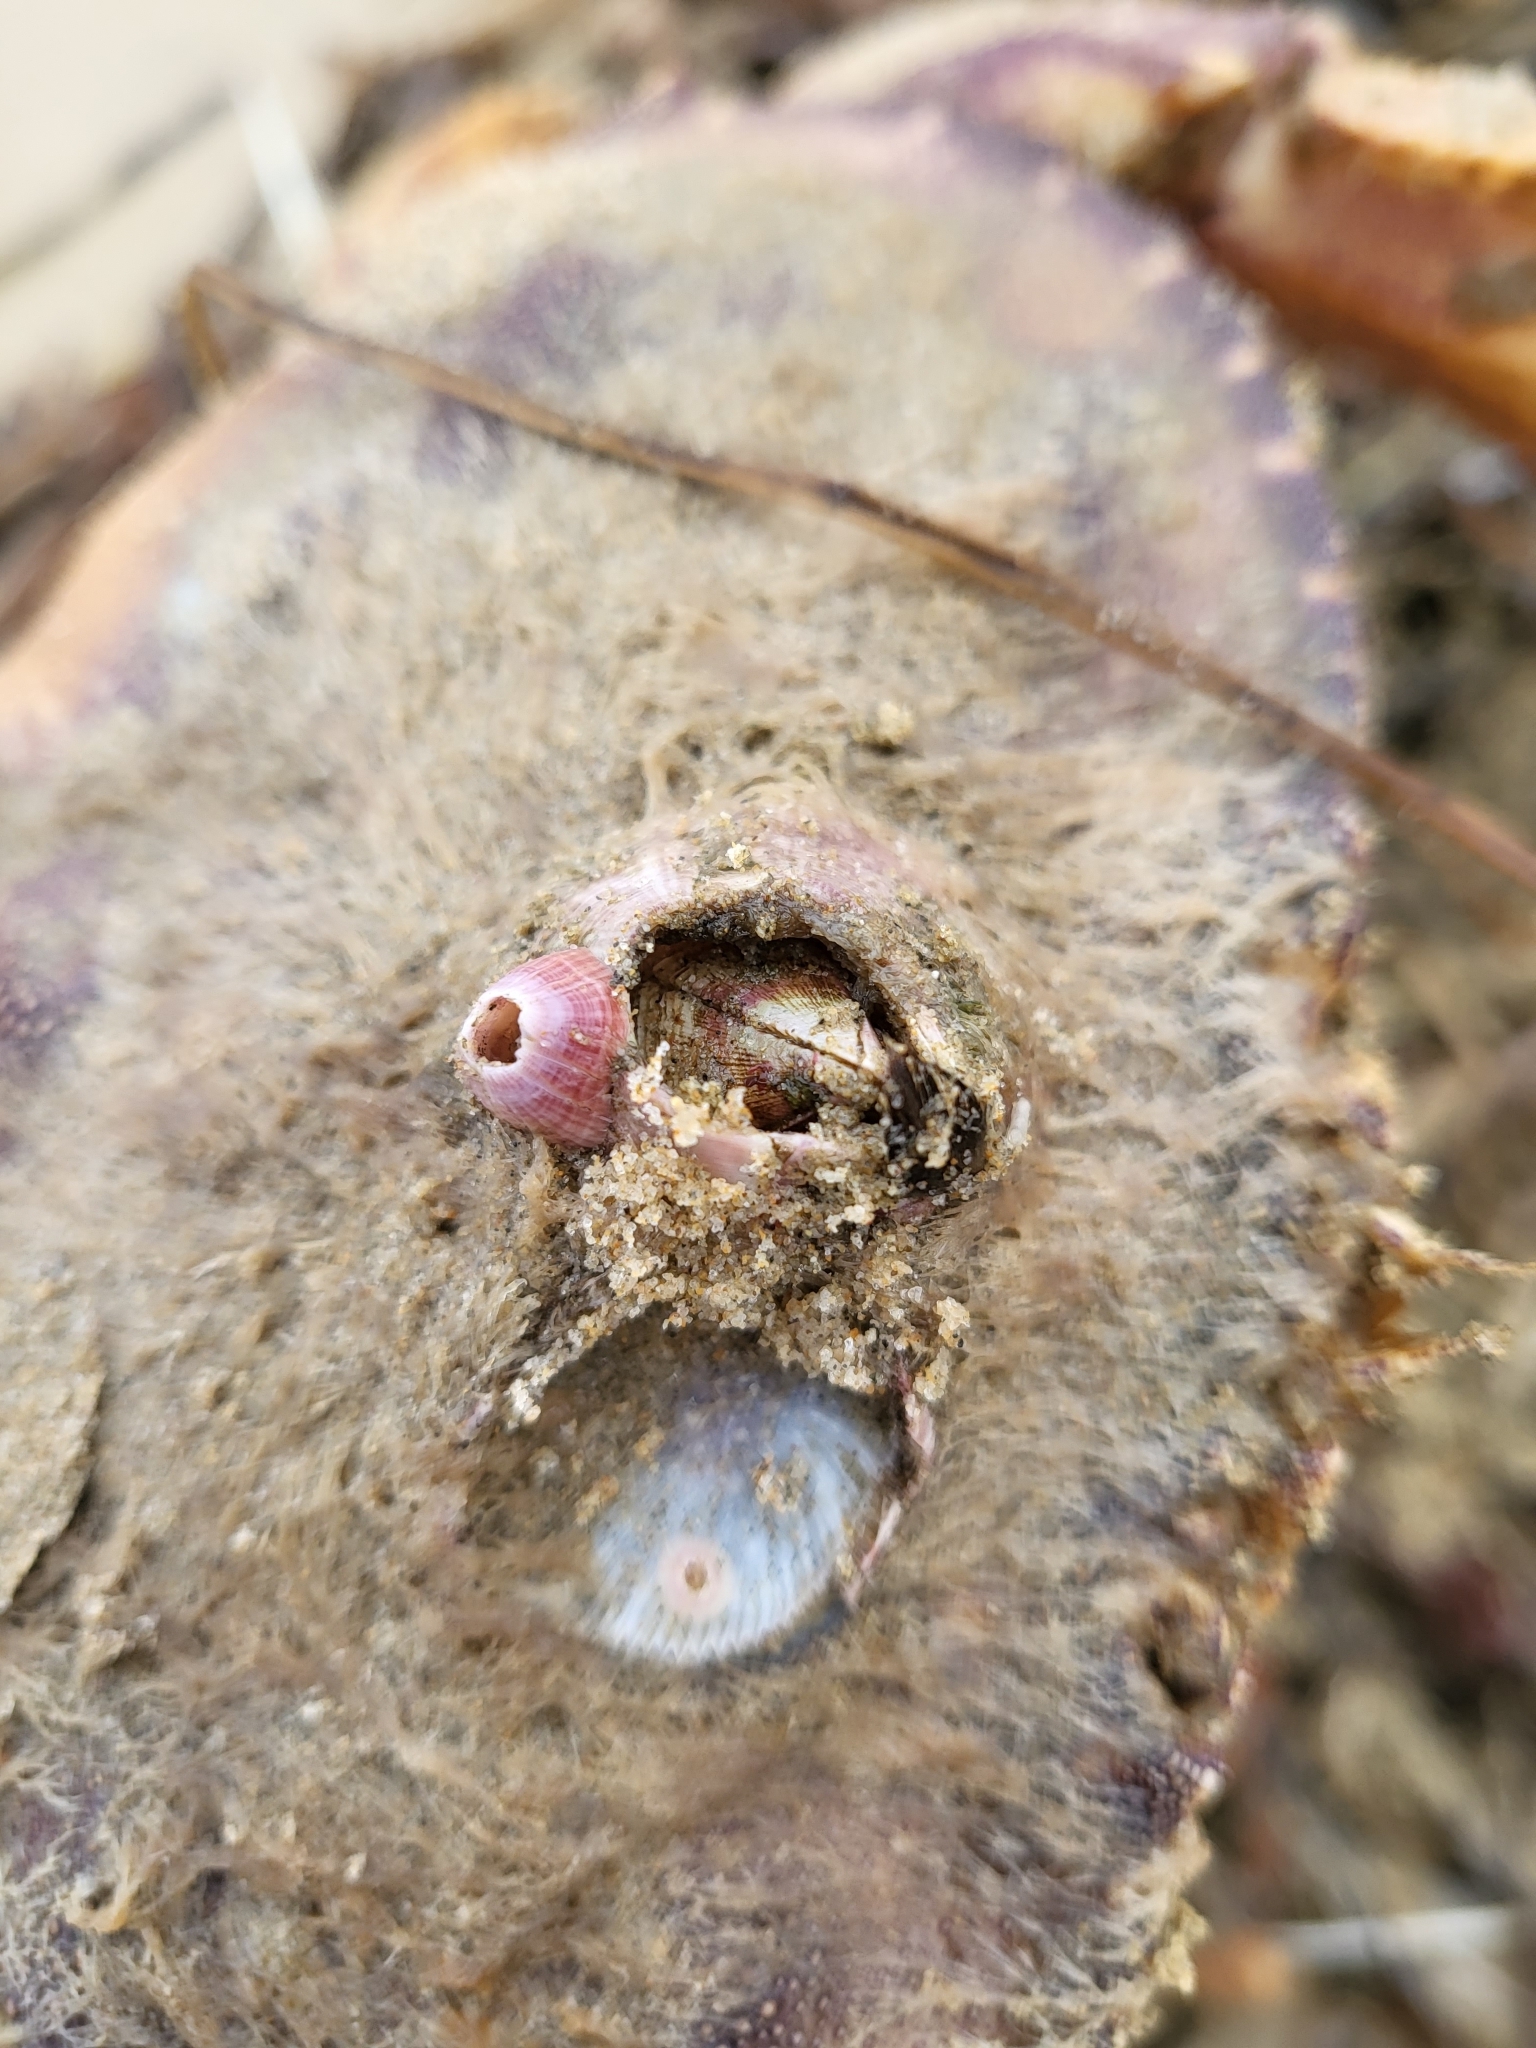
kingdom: Animalia
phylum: Arthropoda
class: Maxillopoda
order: Sessilia
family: Balanidae
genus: Paraconcavus
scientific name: Paraconcavus pacificus
